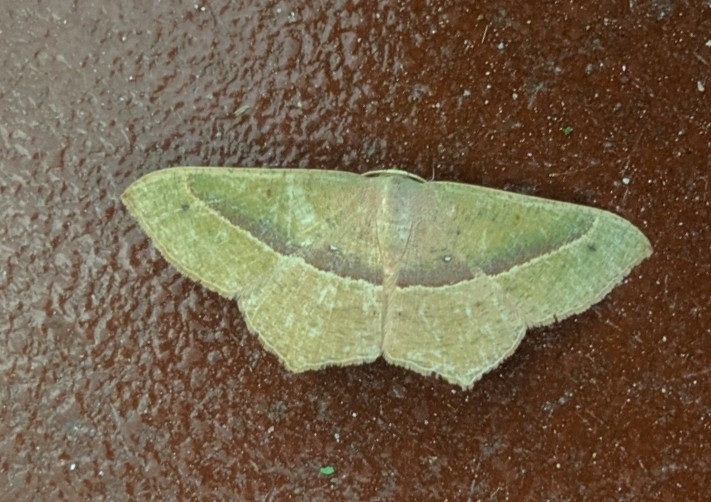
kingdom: Animalia
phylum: Arthropoda
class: Insecta
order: Lepidoptera
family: Geometridae
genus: Traminda
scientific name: Traminda mundissima
